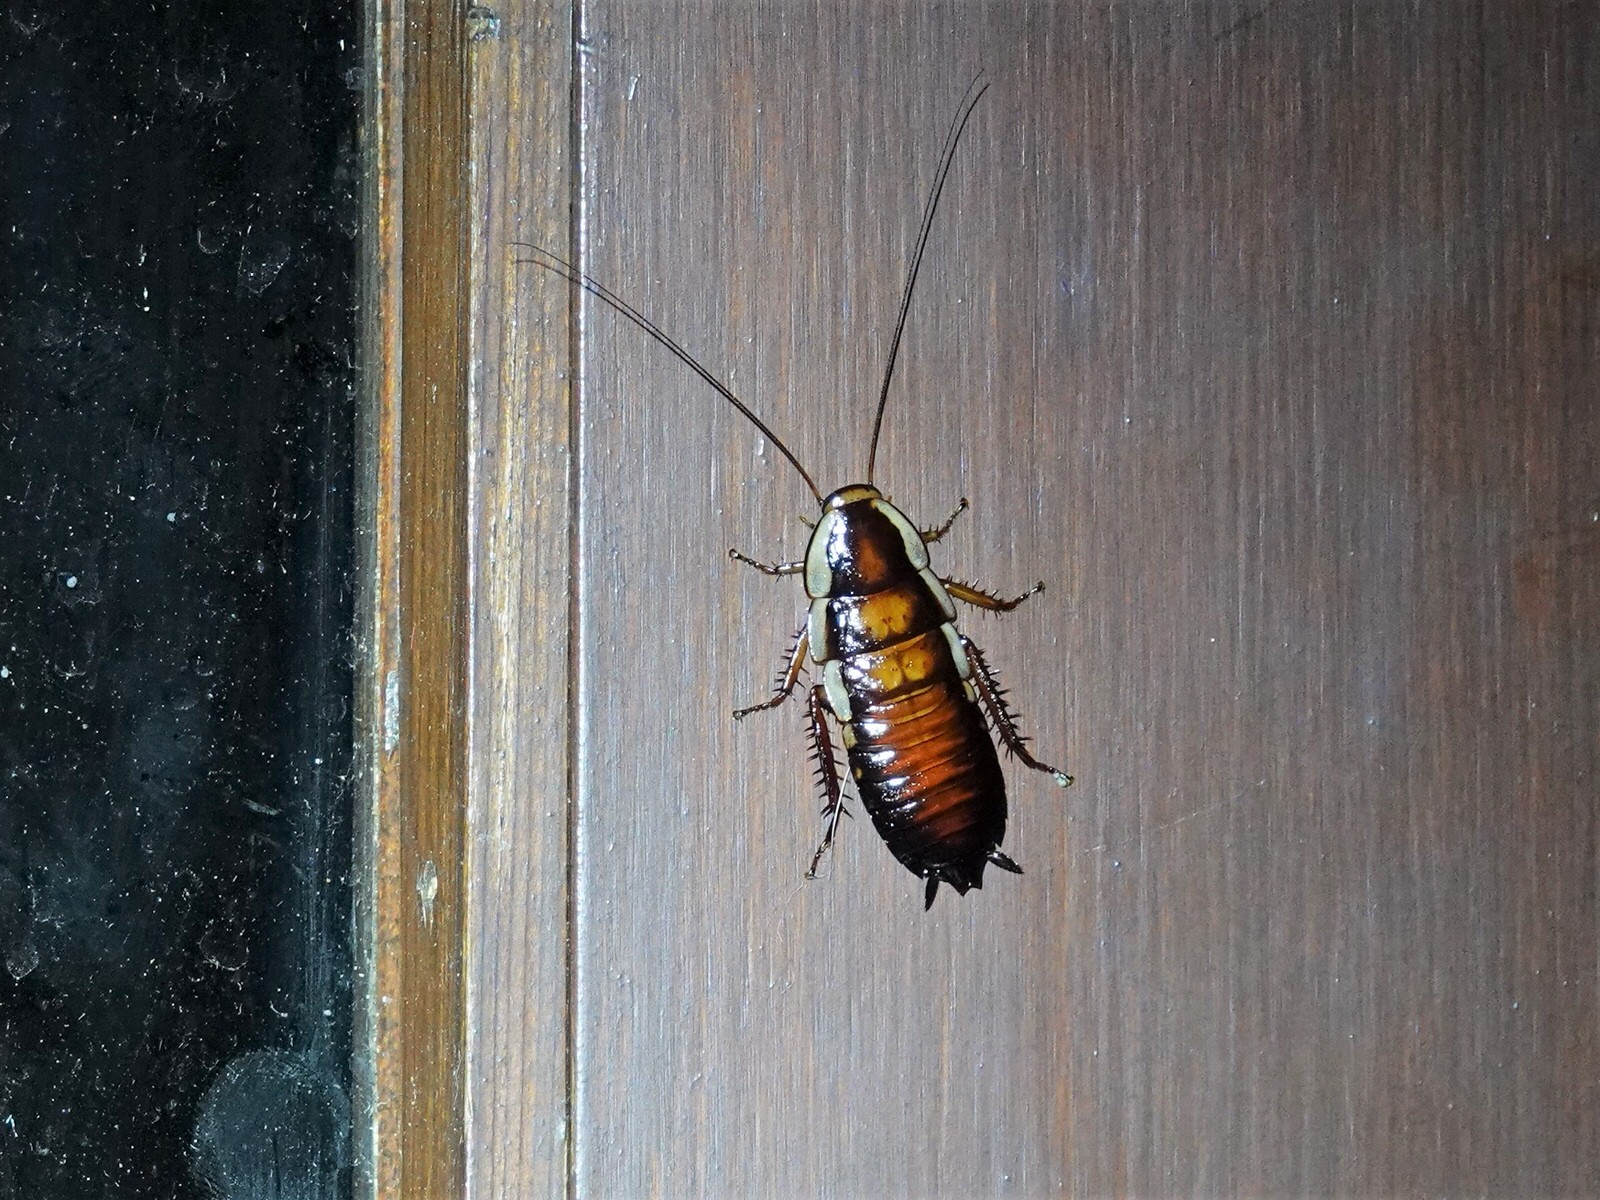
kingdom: Animalia
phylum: Arthropoda
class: Insecta
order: Blattodea
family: Blattidae
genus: Drymaplaneta
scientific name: Drymaplaneta semivitta
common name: Gisborne cockroach
